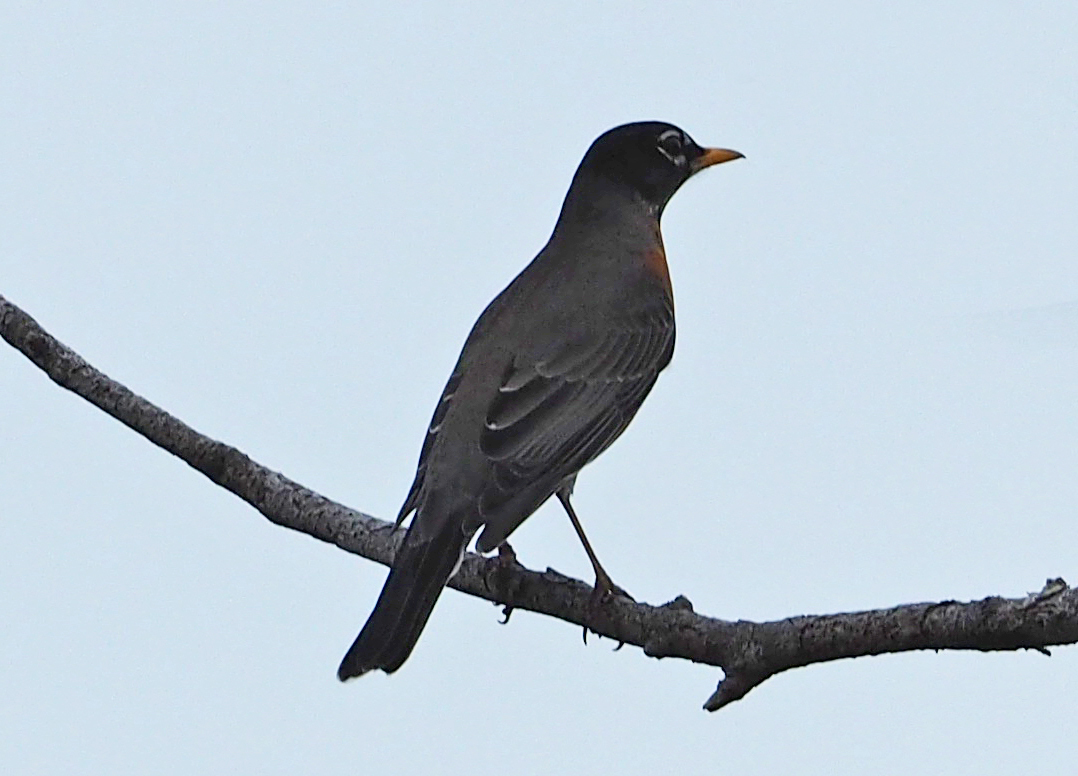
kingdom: Animalia
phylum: Chordata
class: Aves
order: Passeriformes
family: Turdidae
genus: Turdus
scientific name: Turdus migratorius
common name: American robin
